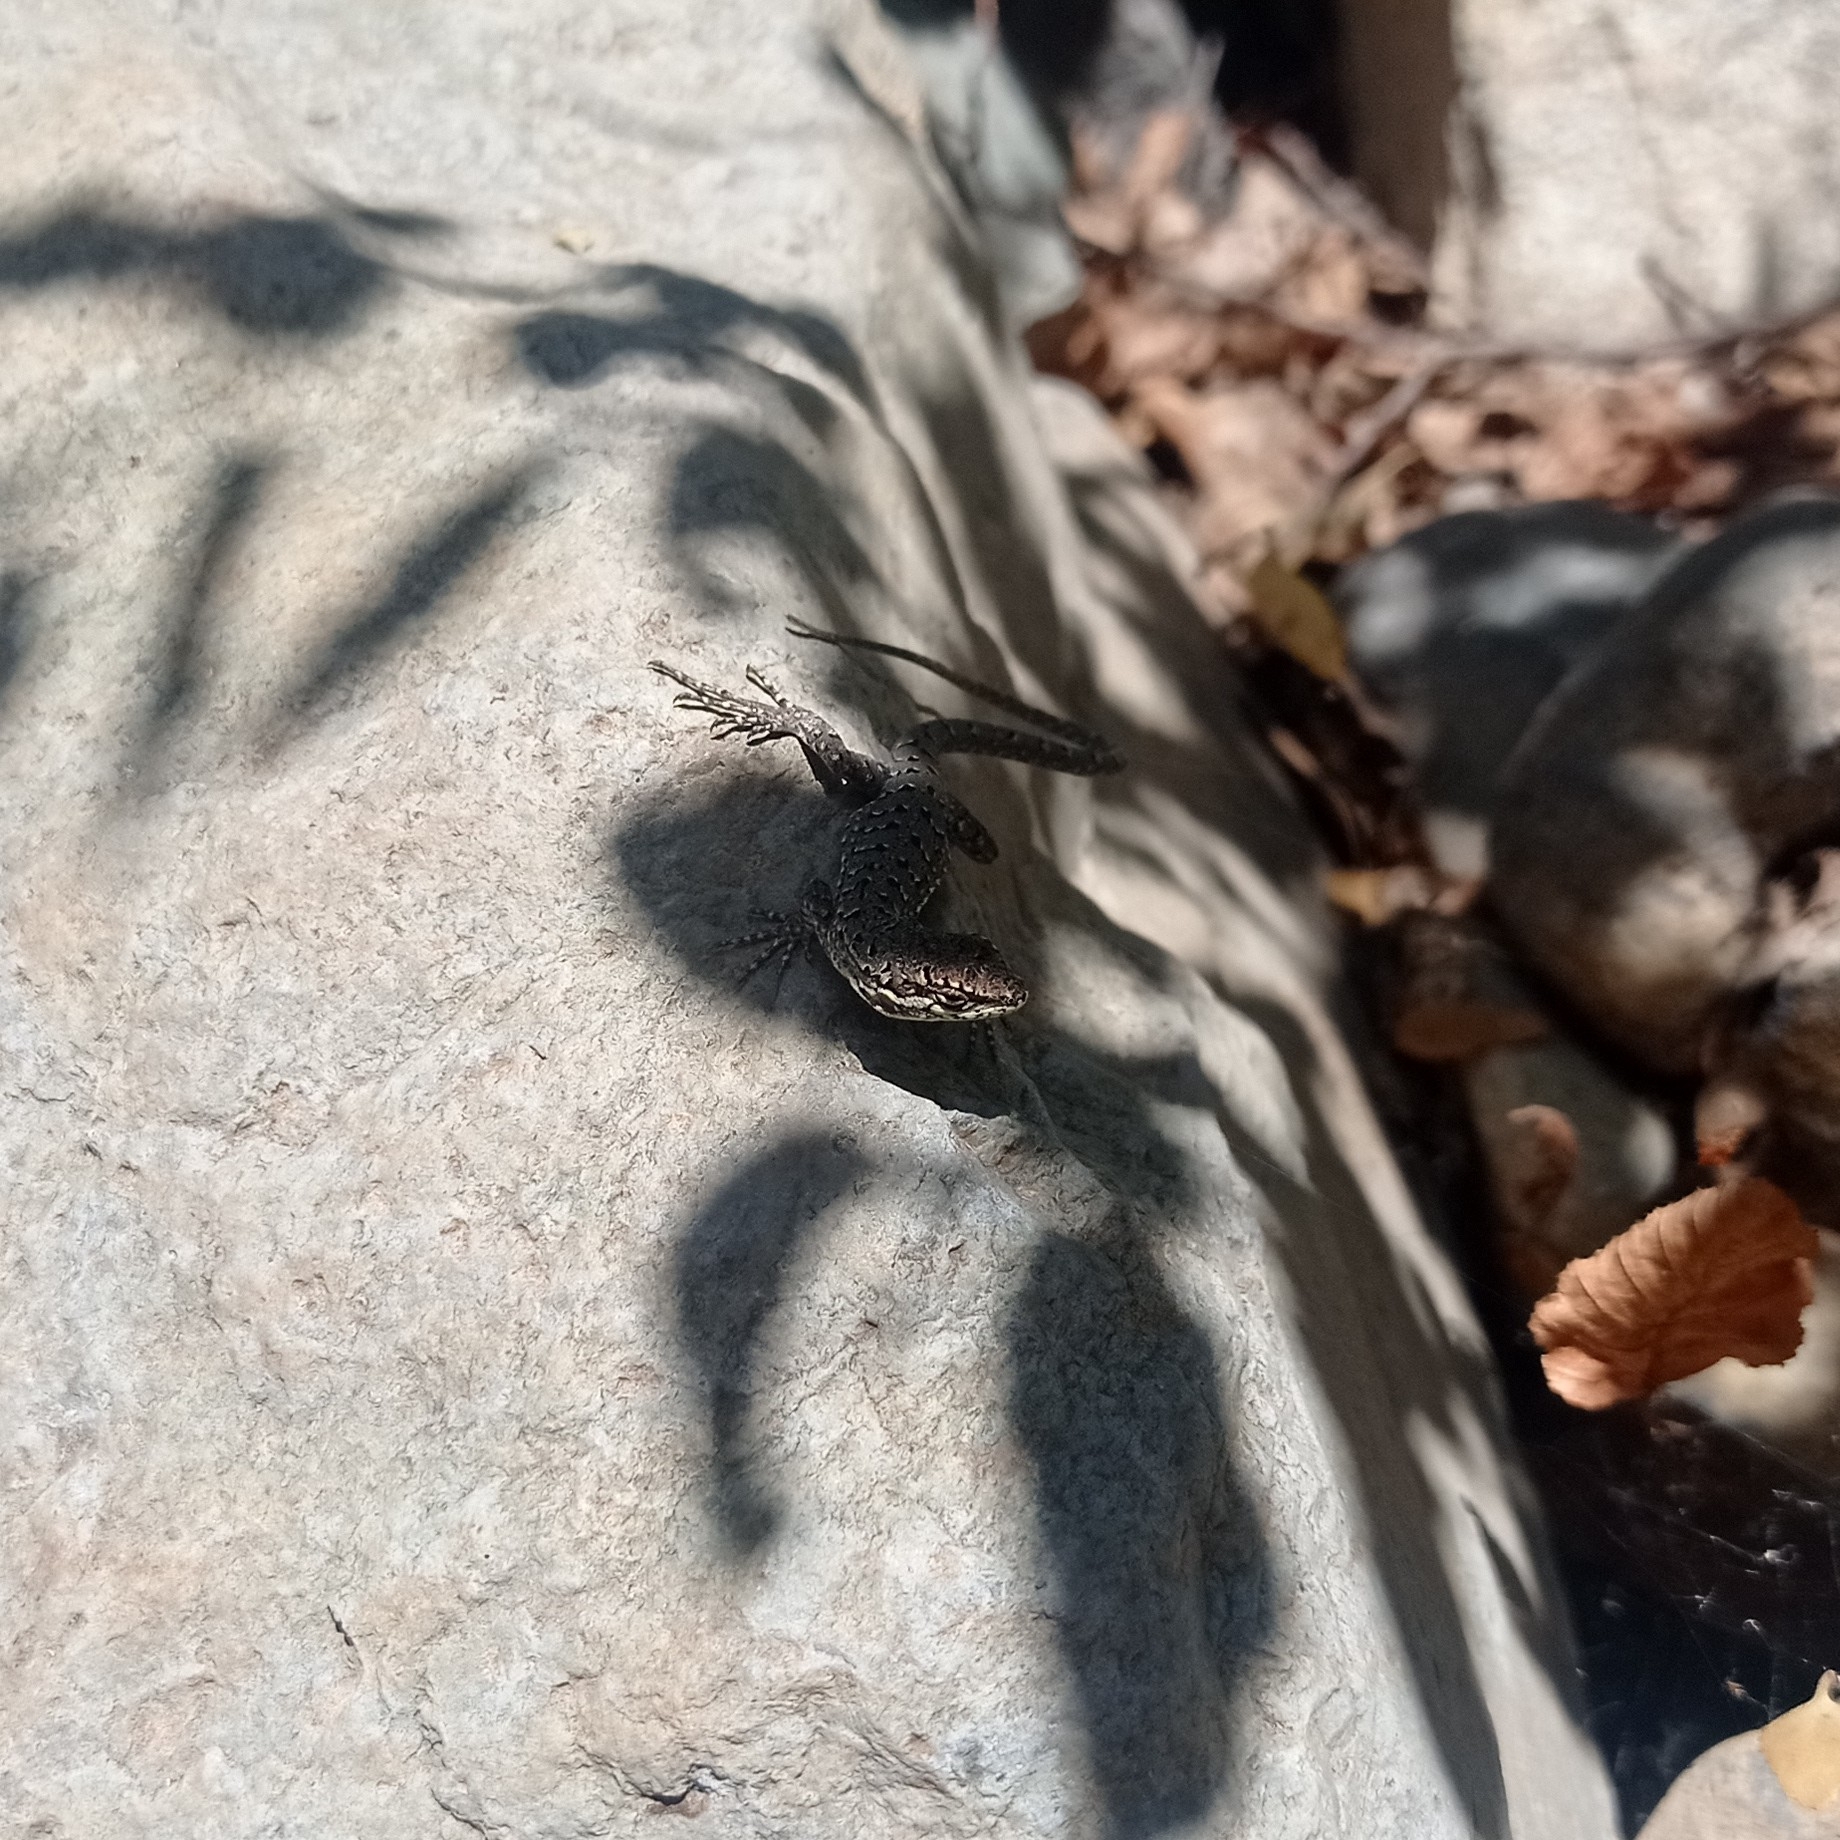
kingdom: Animalia
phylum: Chordata
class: Squamata
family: Liolaemidae
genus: Liolaemus
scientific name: Liolaemus tenuis
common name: Thin tree iguana
